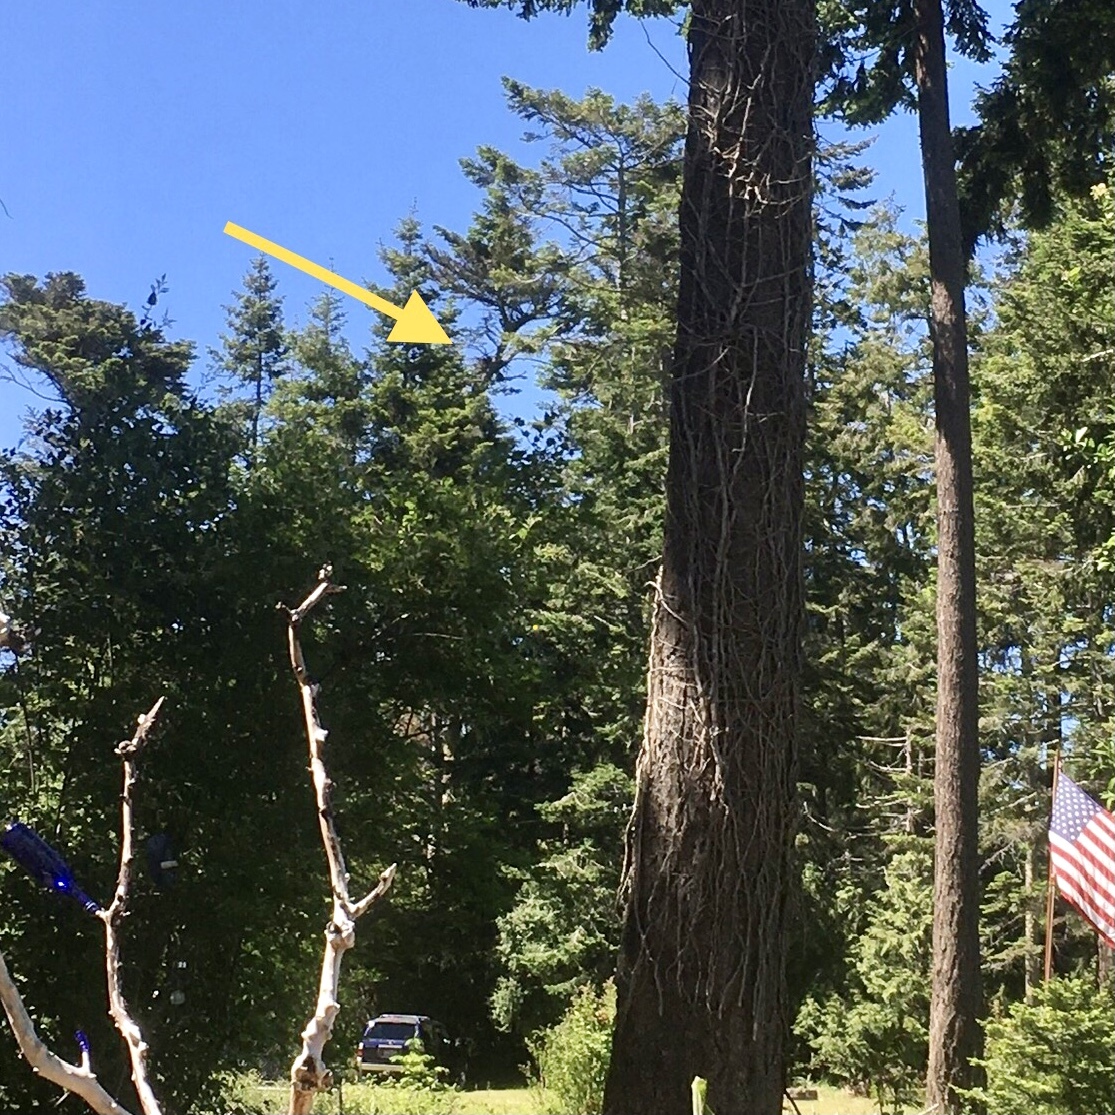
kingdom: Animalia
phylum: Chordata
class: Aves
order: Accipitriformes
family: Accipitridae
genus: Haliaeetus
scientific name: Haliaeetus leucocephalus
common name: Bald eagle
